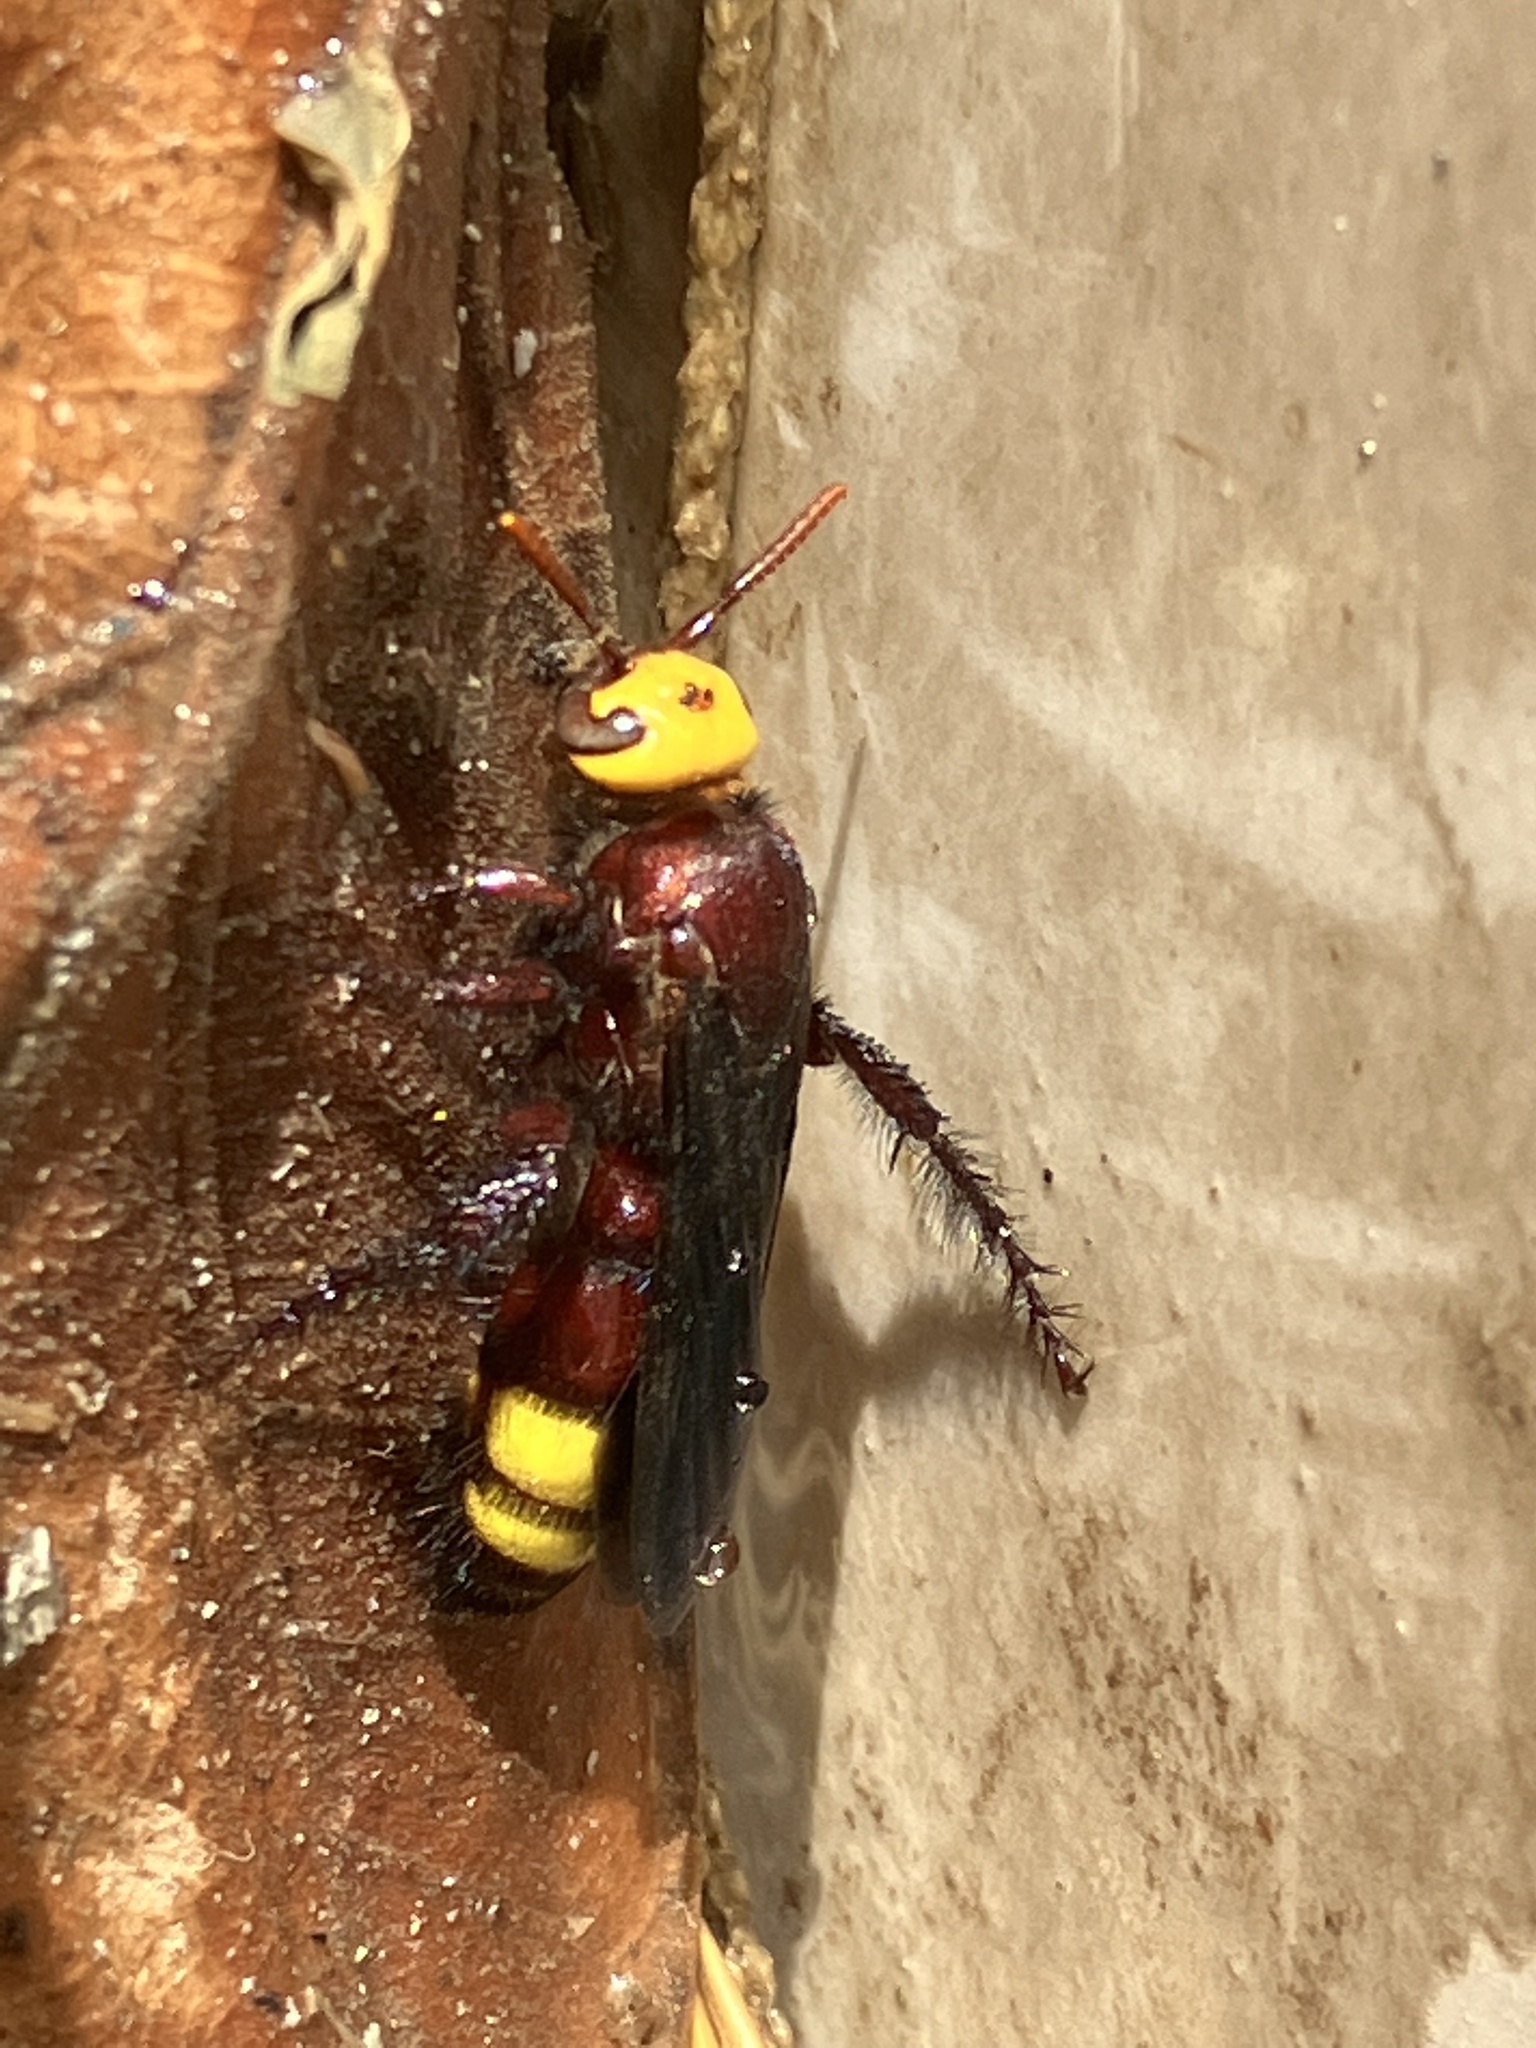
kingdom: Animalia
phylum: Arthropoda
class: Insecta
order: Hymenoptera
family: Scoliidae
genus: Scolia
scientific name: Scolia flaviceps
